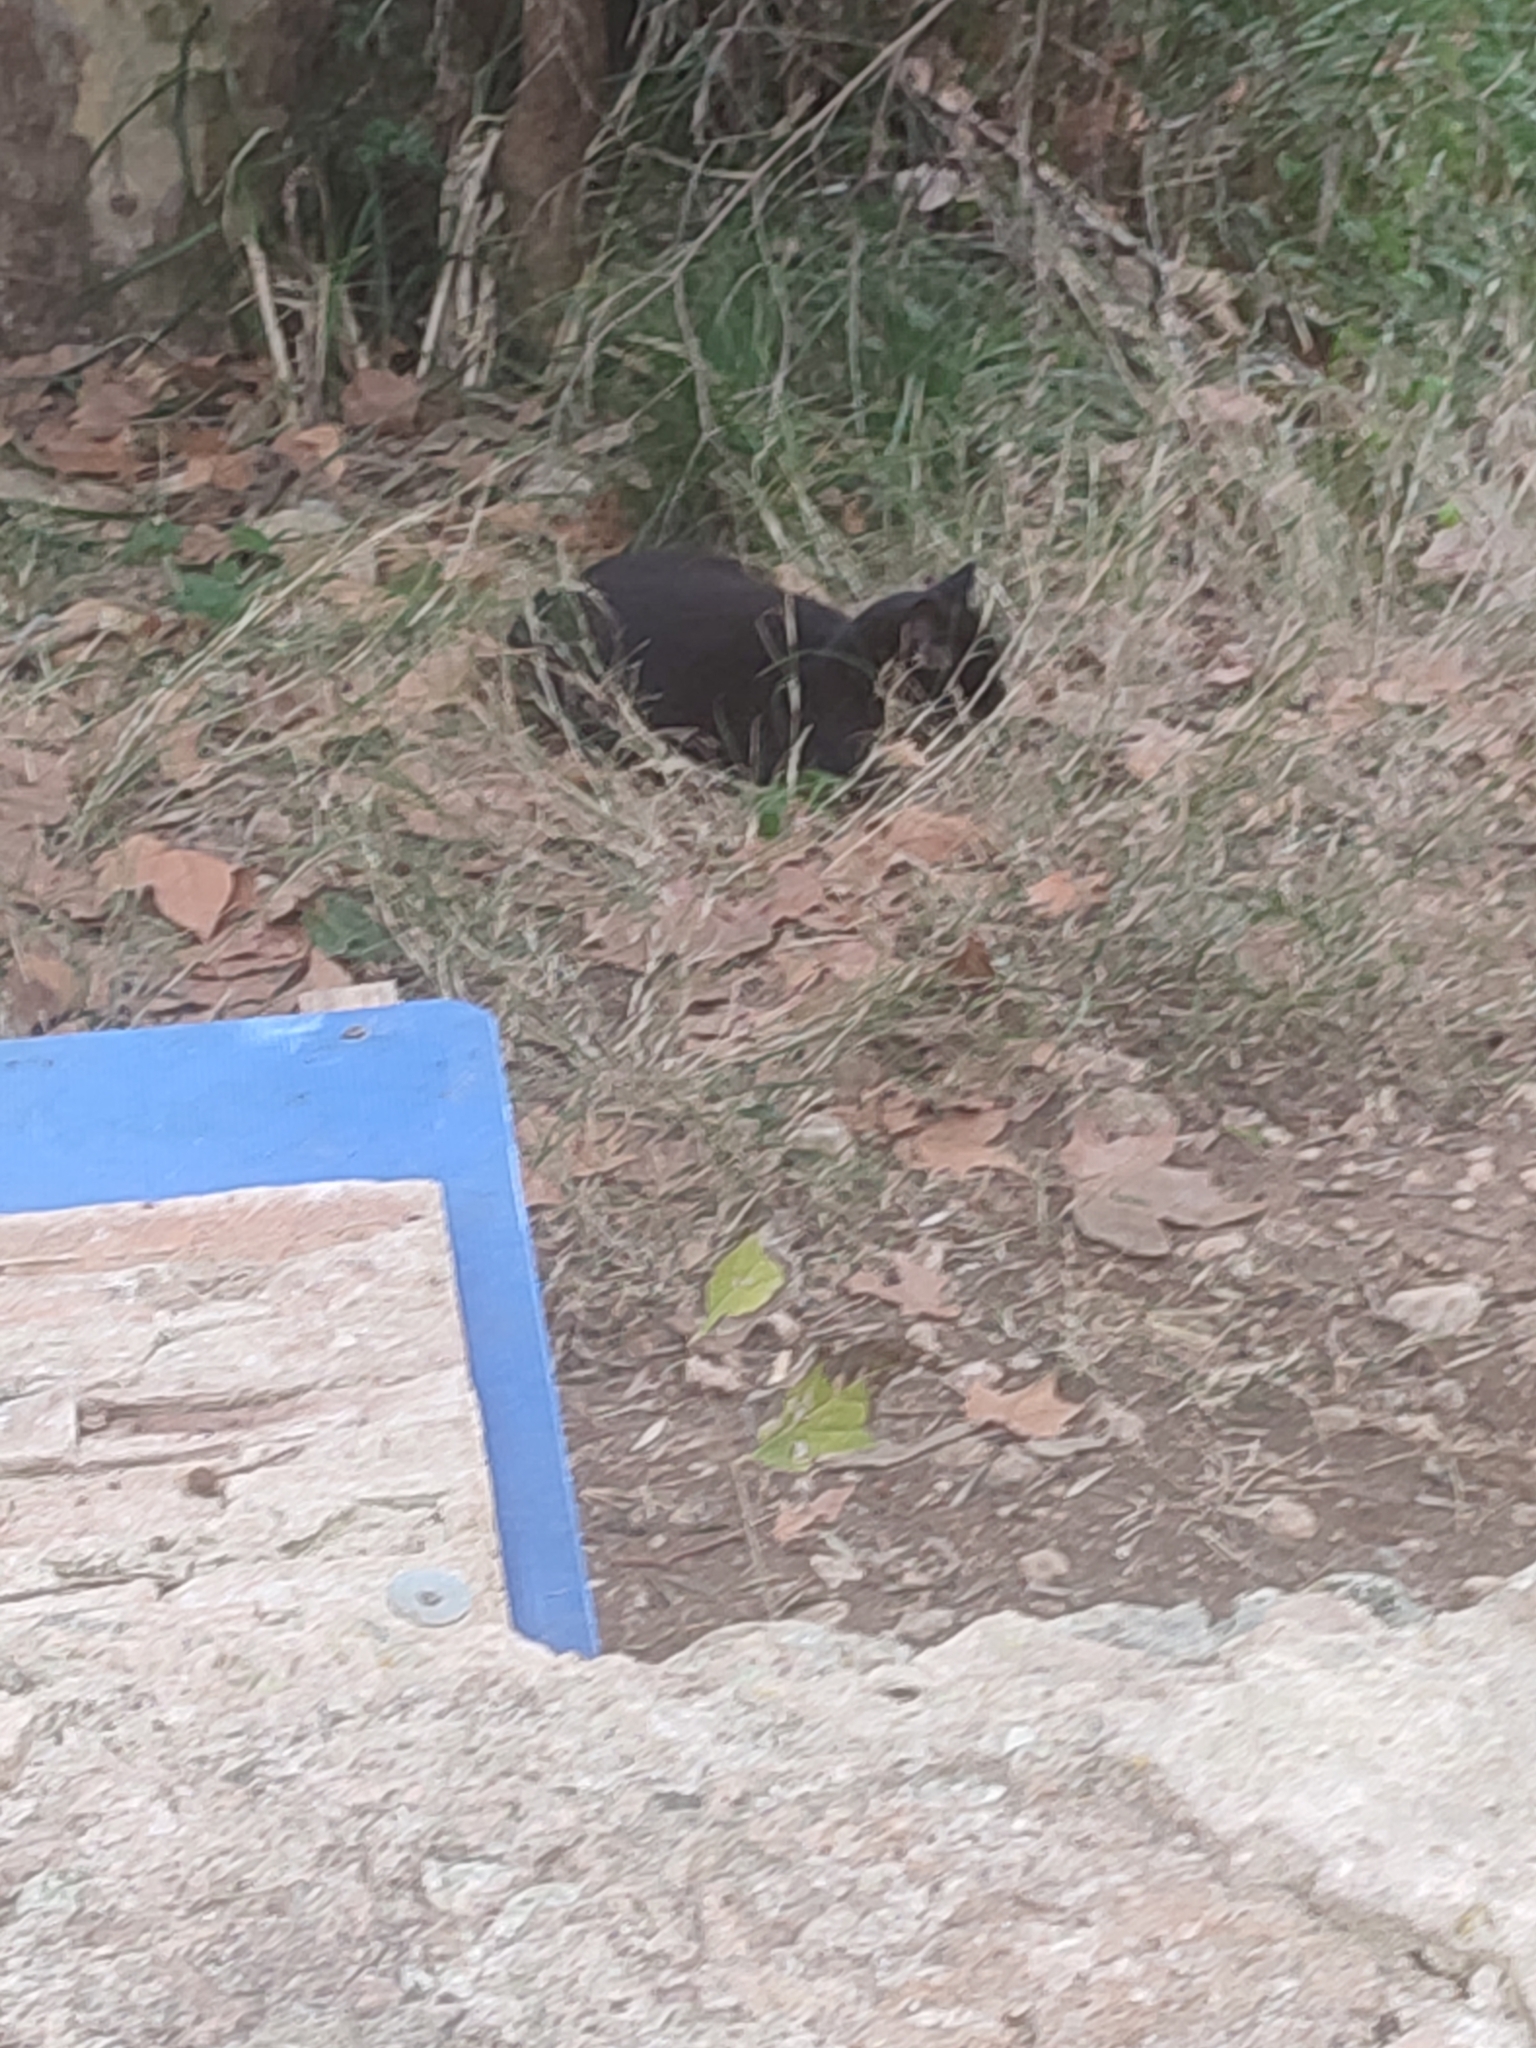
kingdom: Animalia
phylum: Chordata
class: Mammalia
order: Carnivora
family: Felidae
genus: Felis
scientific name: Felis catus
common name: Domestic cat
